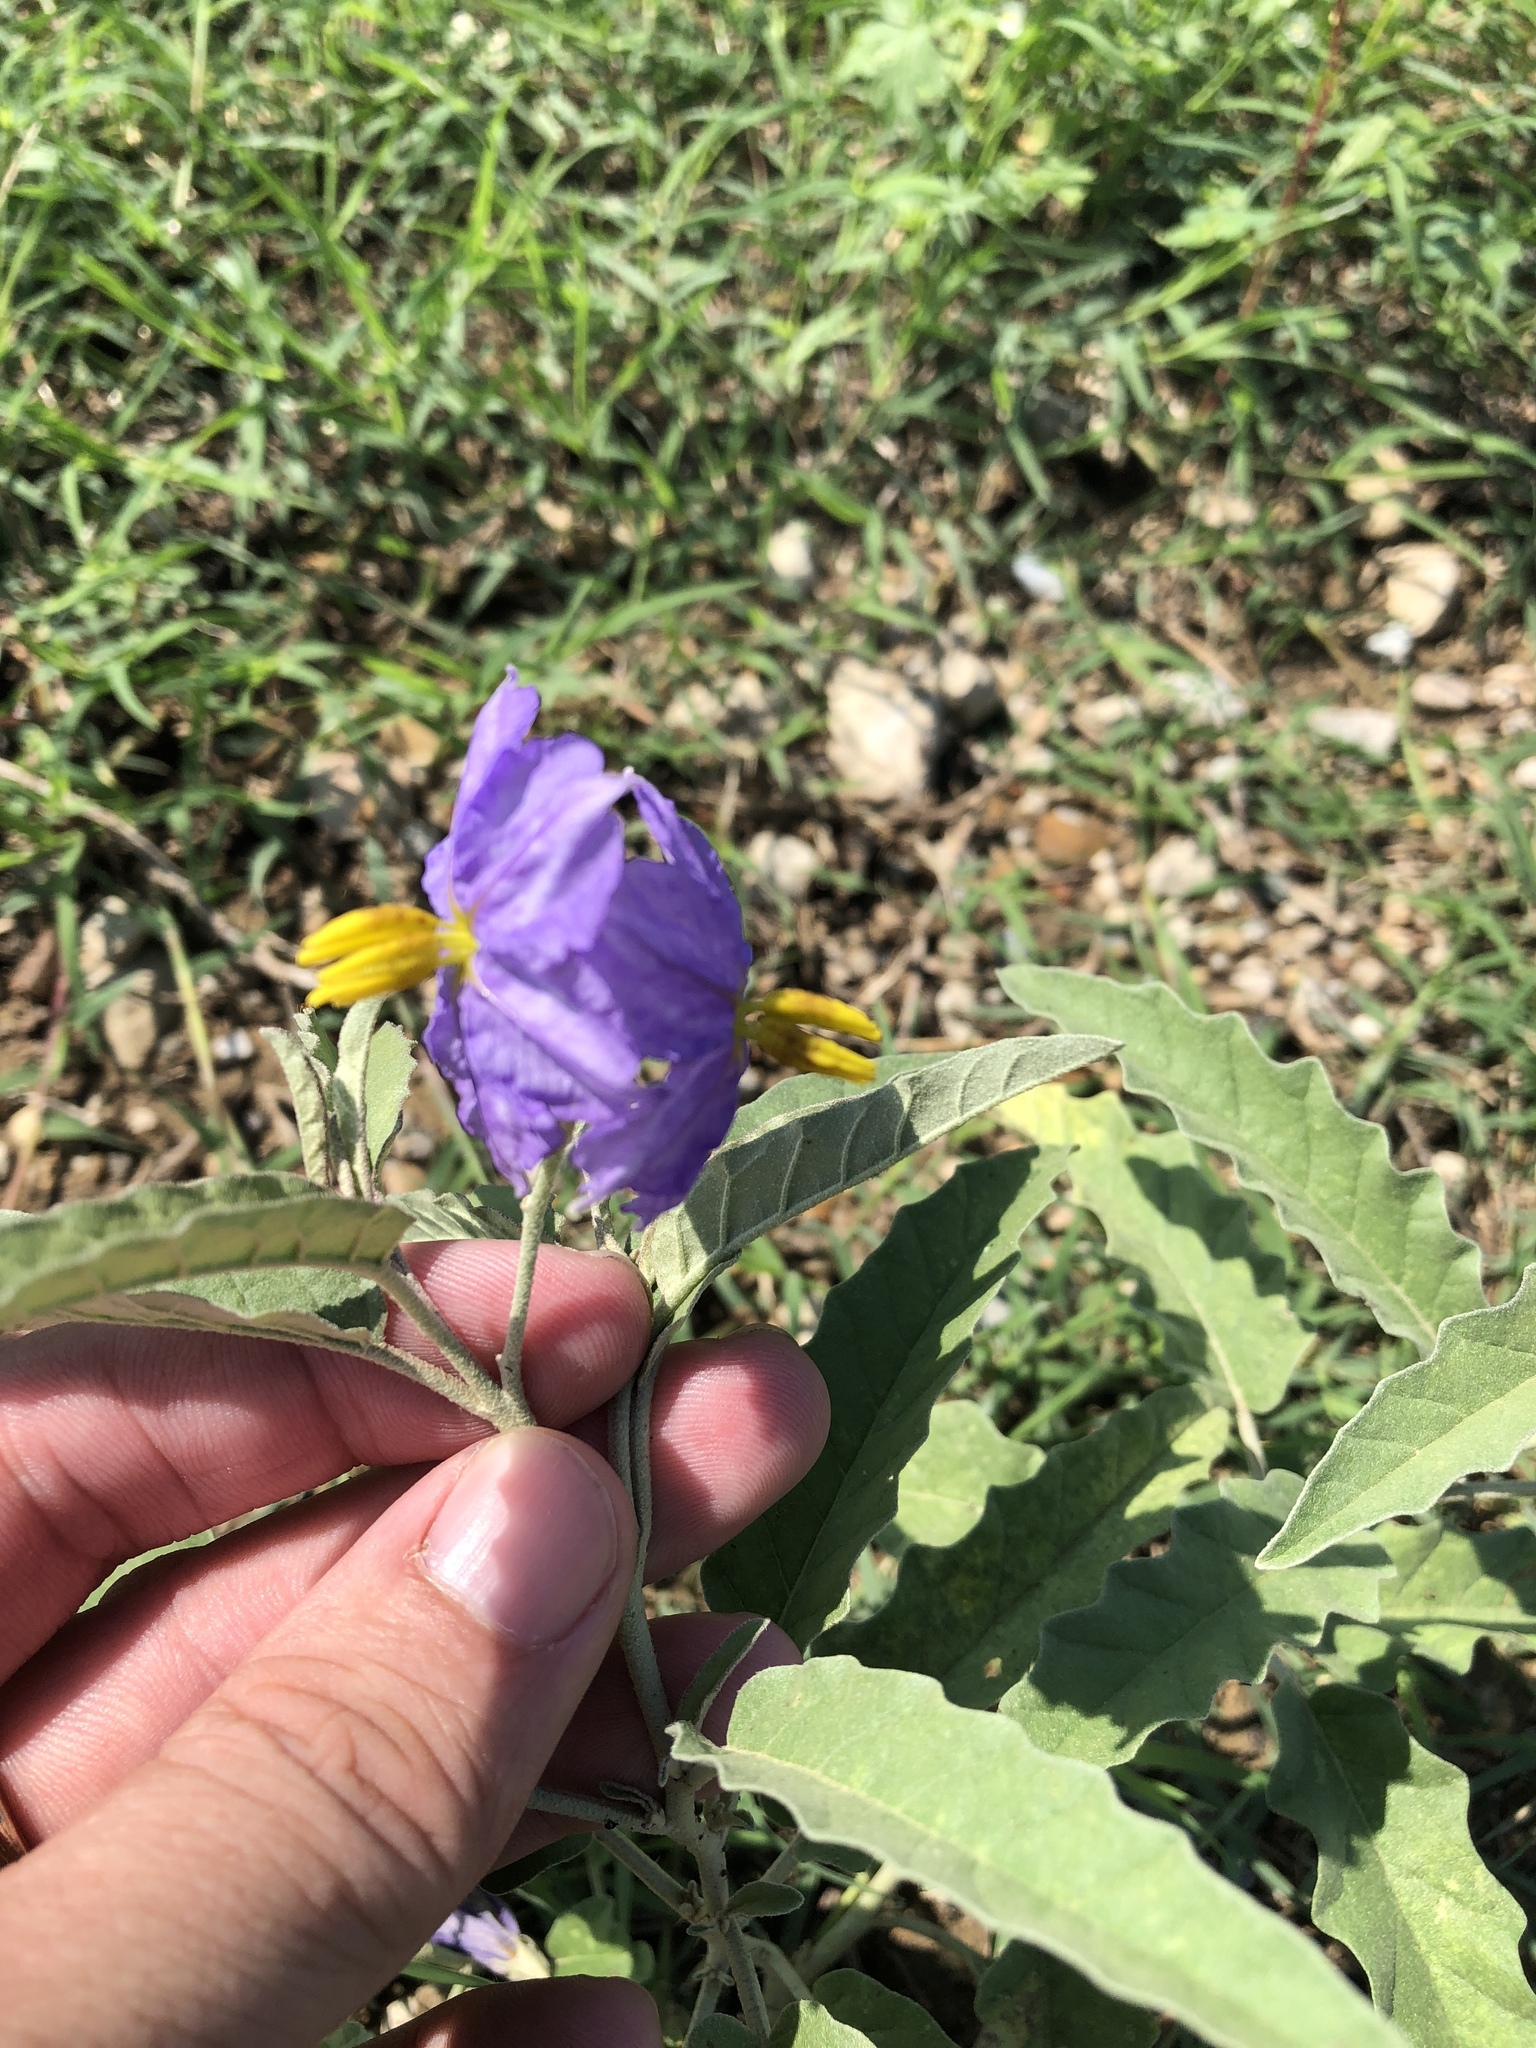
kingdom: Plantae
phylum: Tracheophyta
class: Magnoliopsida
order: Solanales
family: Solanaceae
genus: Solanum
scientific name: Solanum elaeagnifolium
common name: Silverleaf nightshade
